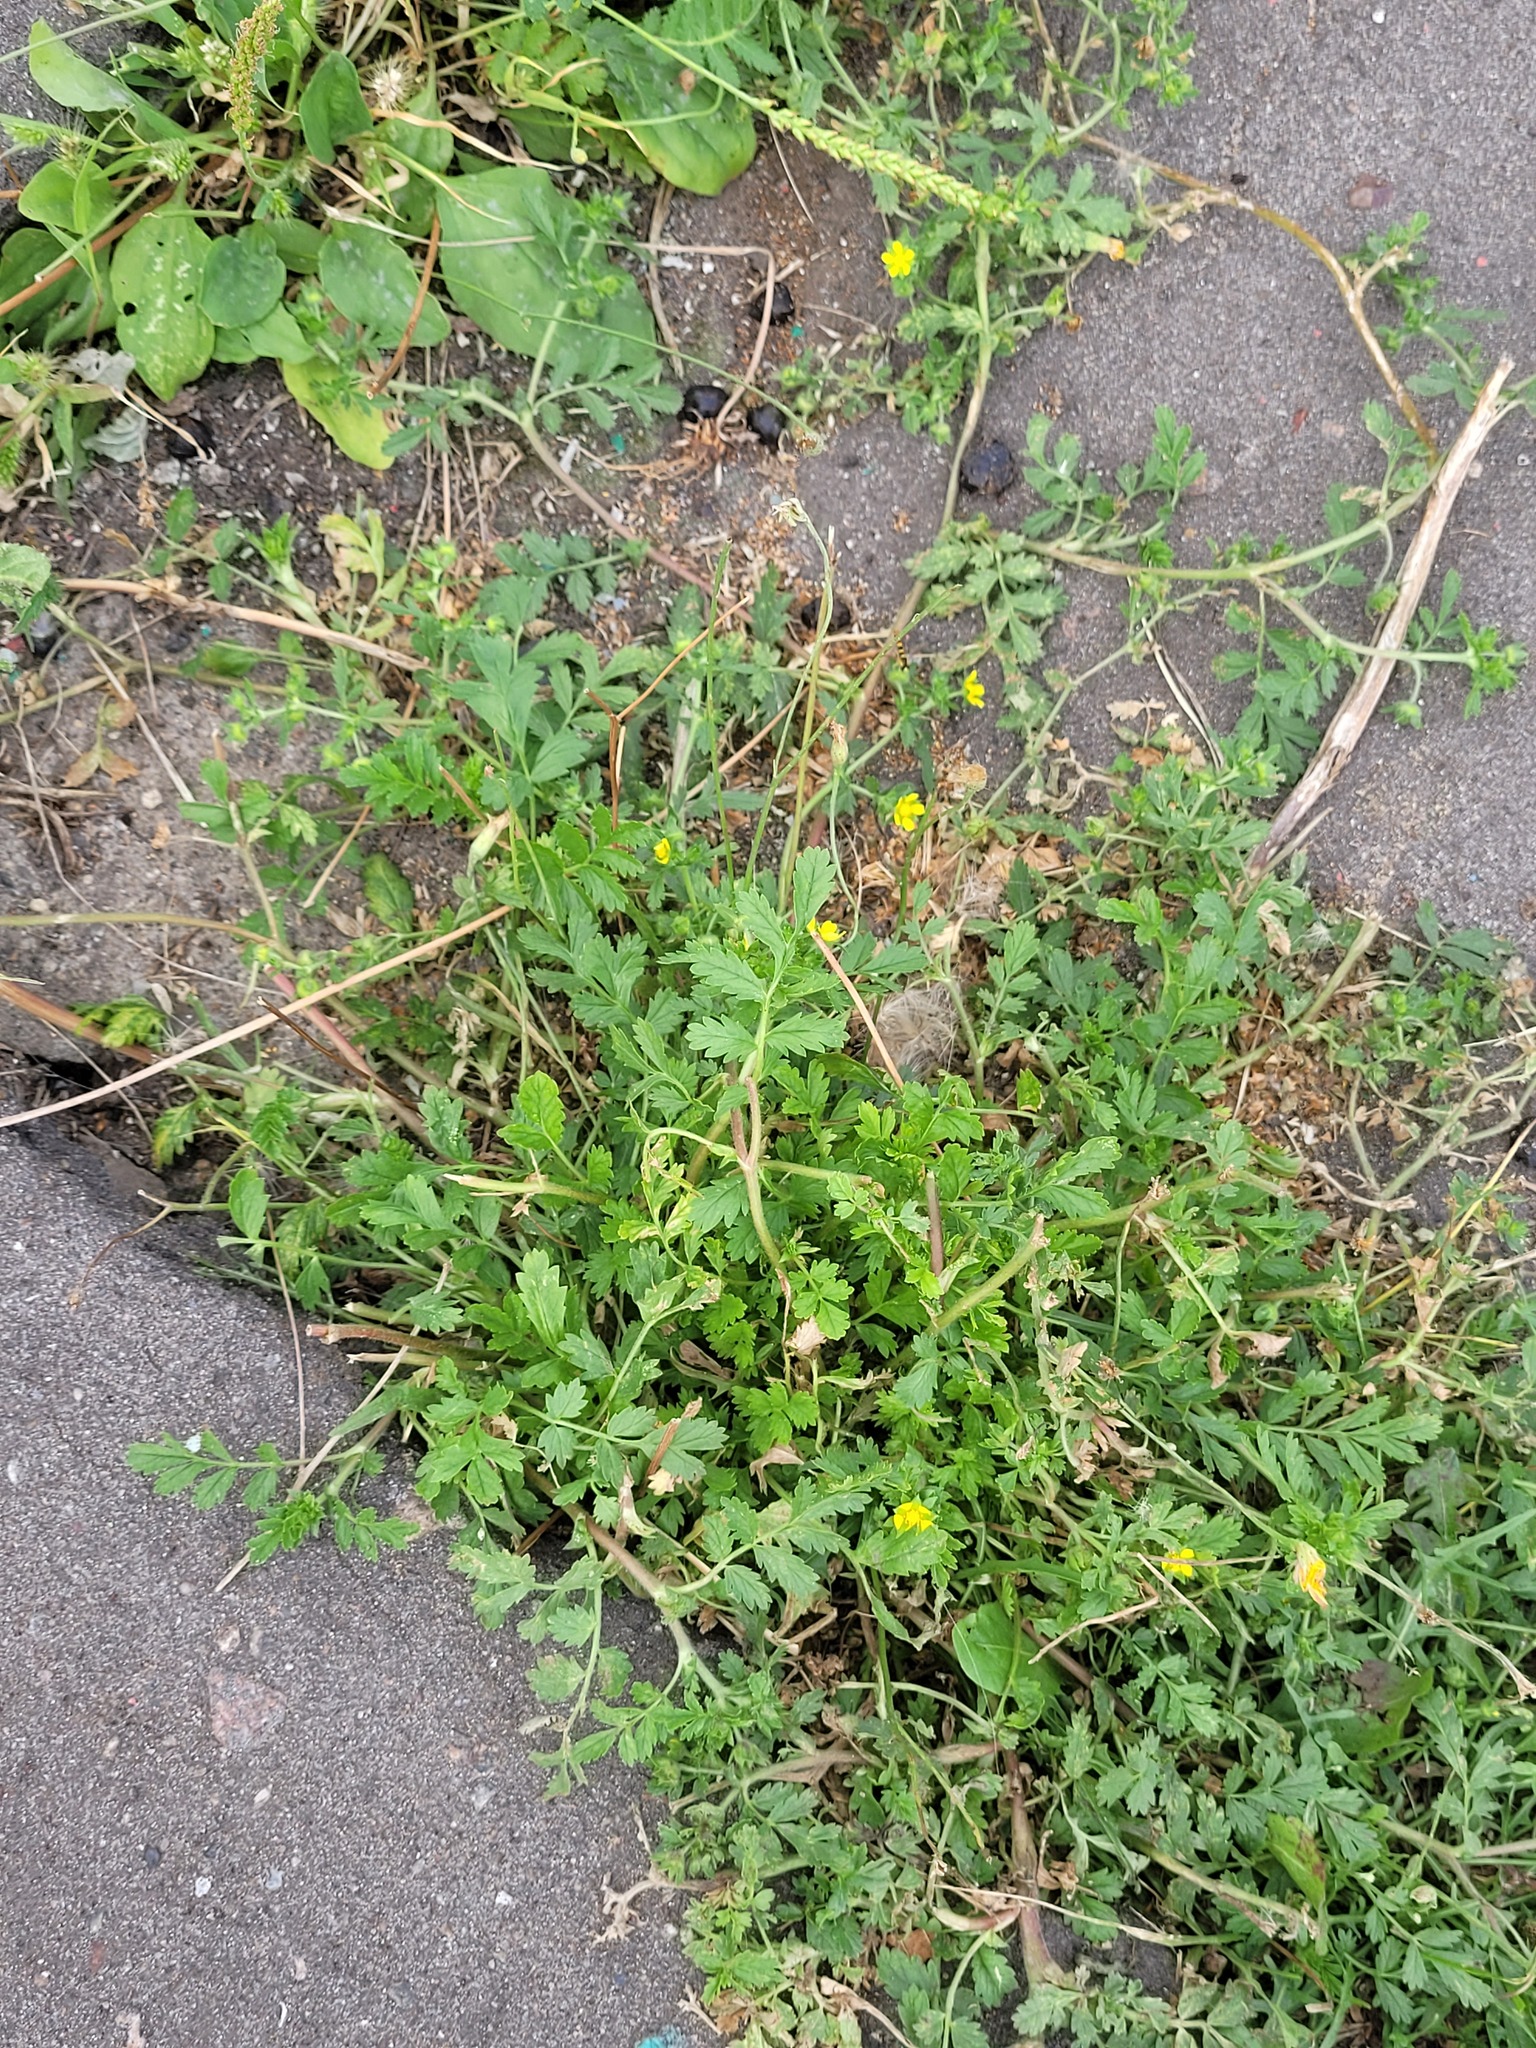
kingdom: Plantae
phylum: Tracheophyta
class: Magnoliopsida
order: Rosales
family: Rosaceae
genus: Potentilla
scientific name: Potentilla supina
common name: Prostrate cinquefoil
